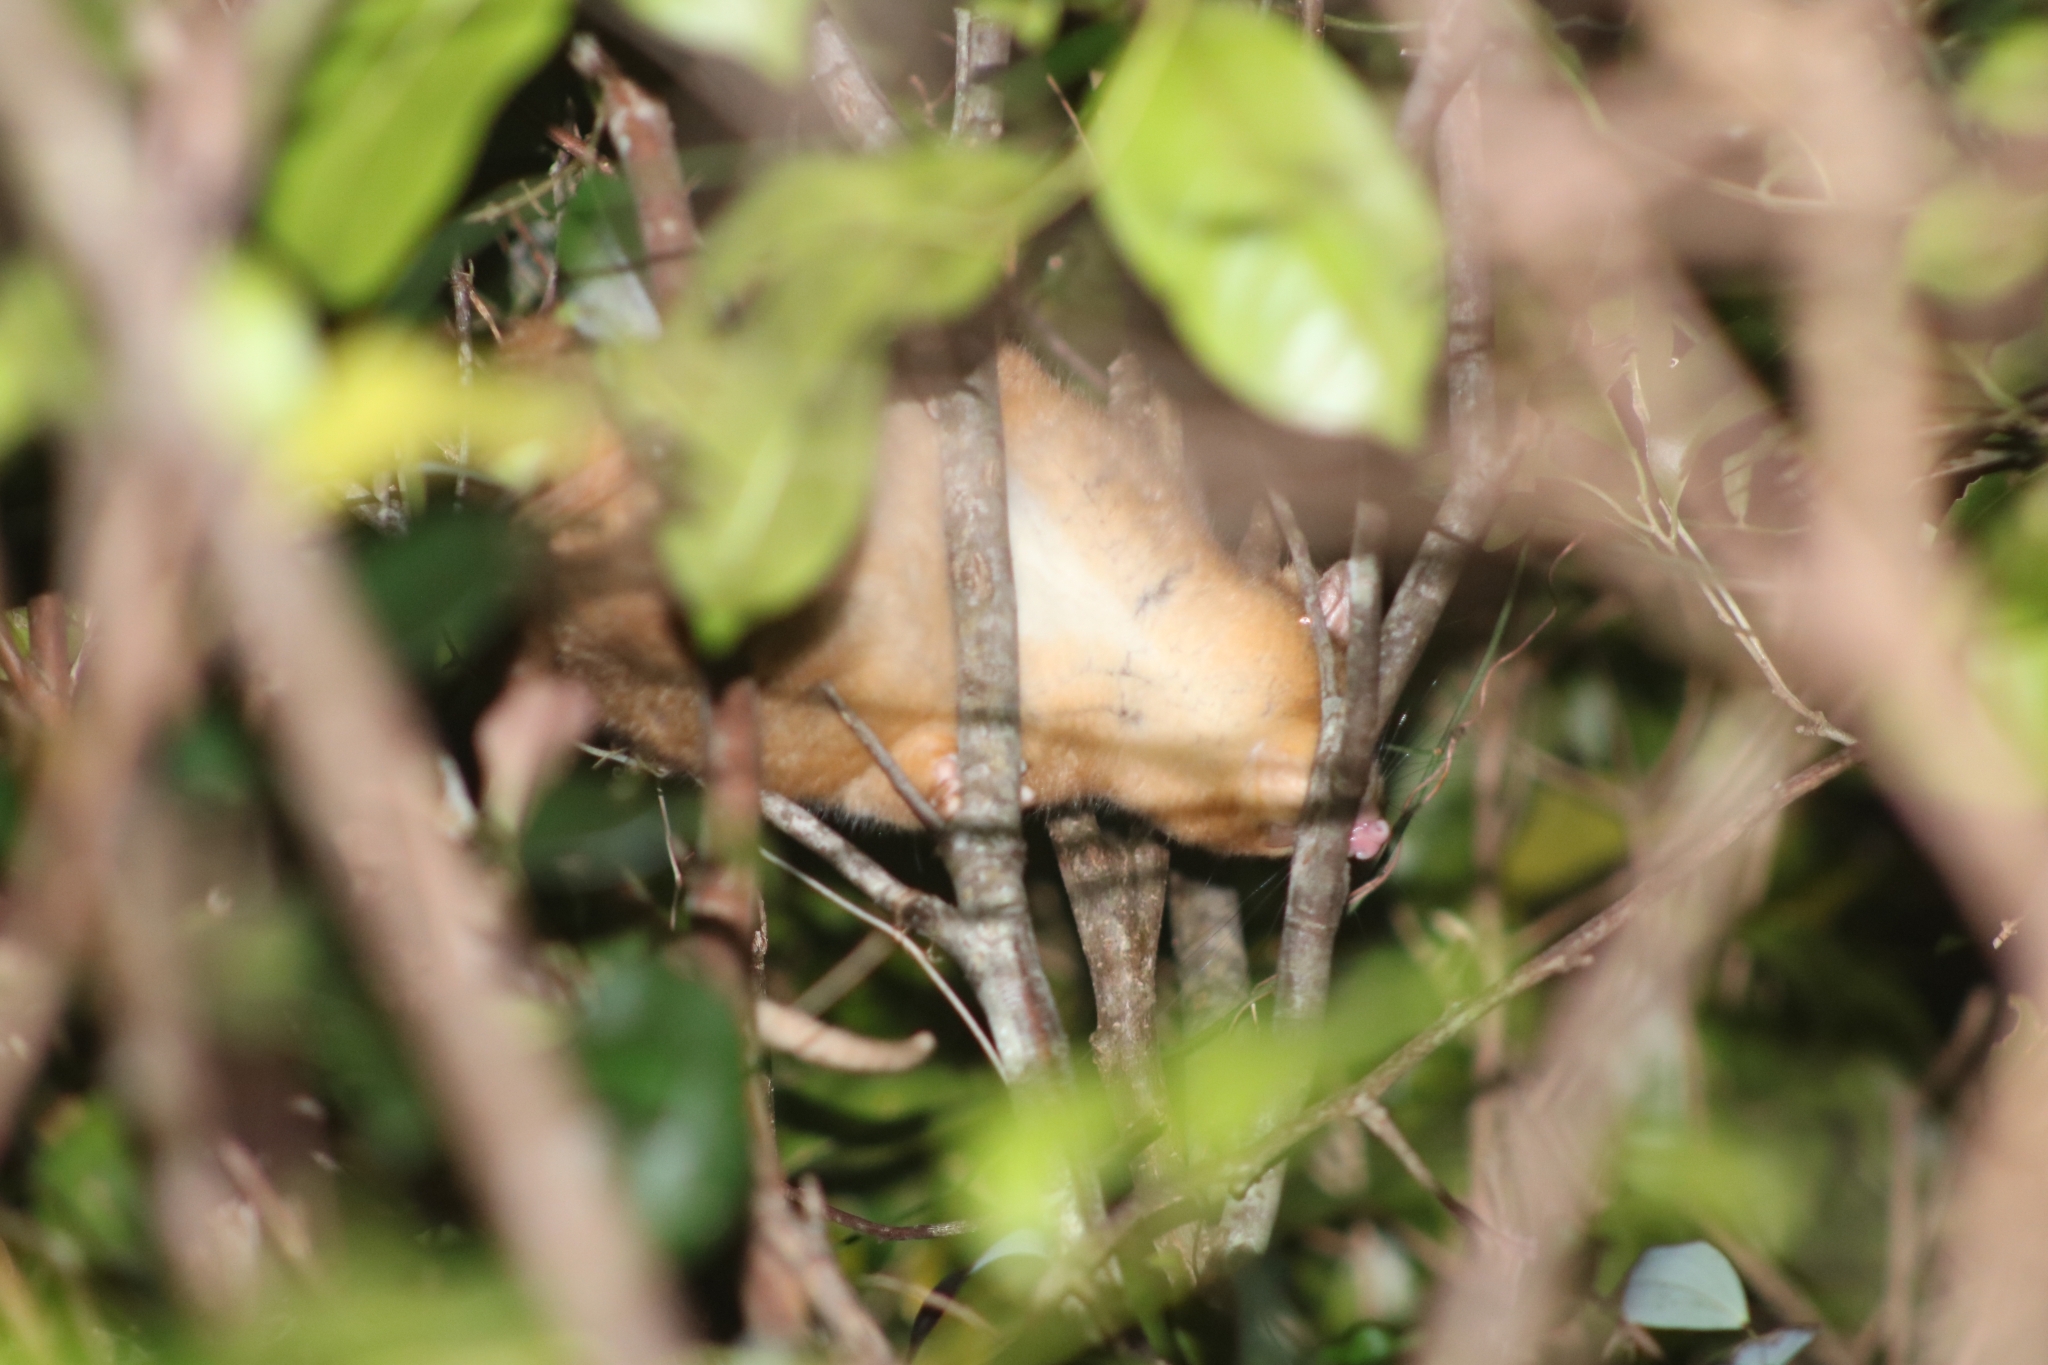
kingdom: Animalia
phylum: Chordata
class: Mammalia
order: Diprotodontia
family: Pseudocheiridae
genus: Pseudocheirus
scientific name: Pseudocheirus peregrinus
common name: Common ringtail possum
